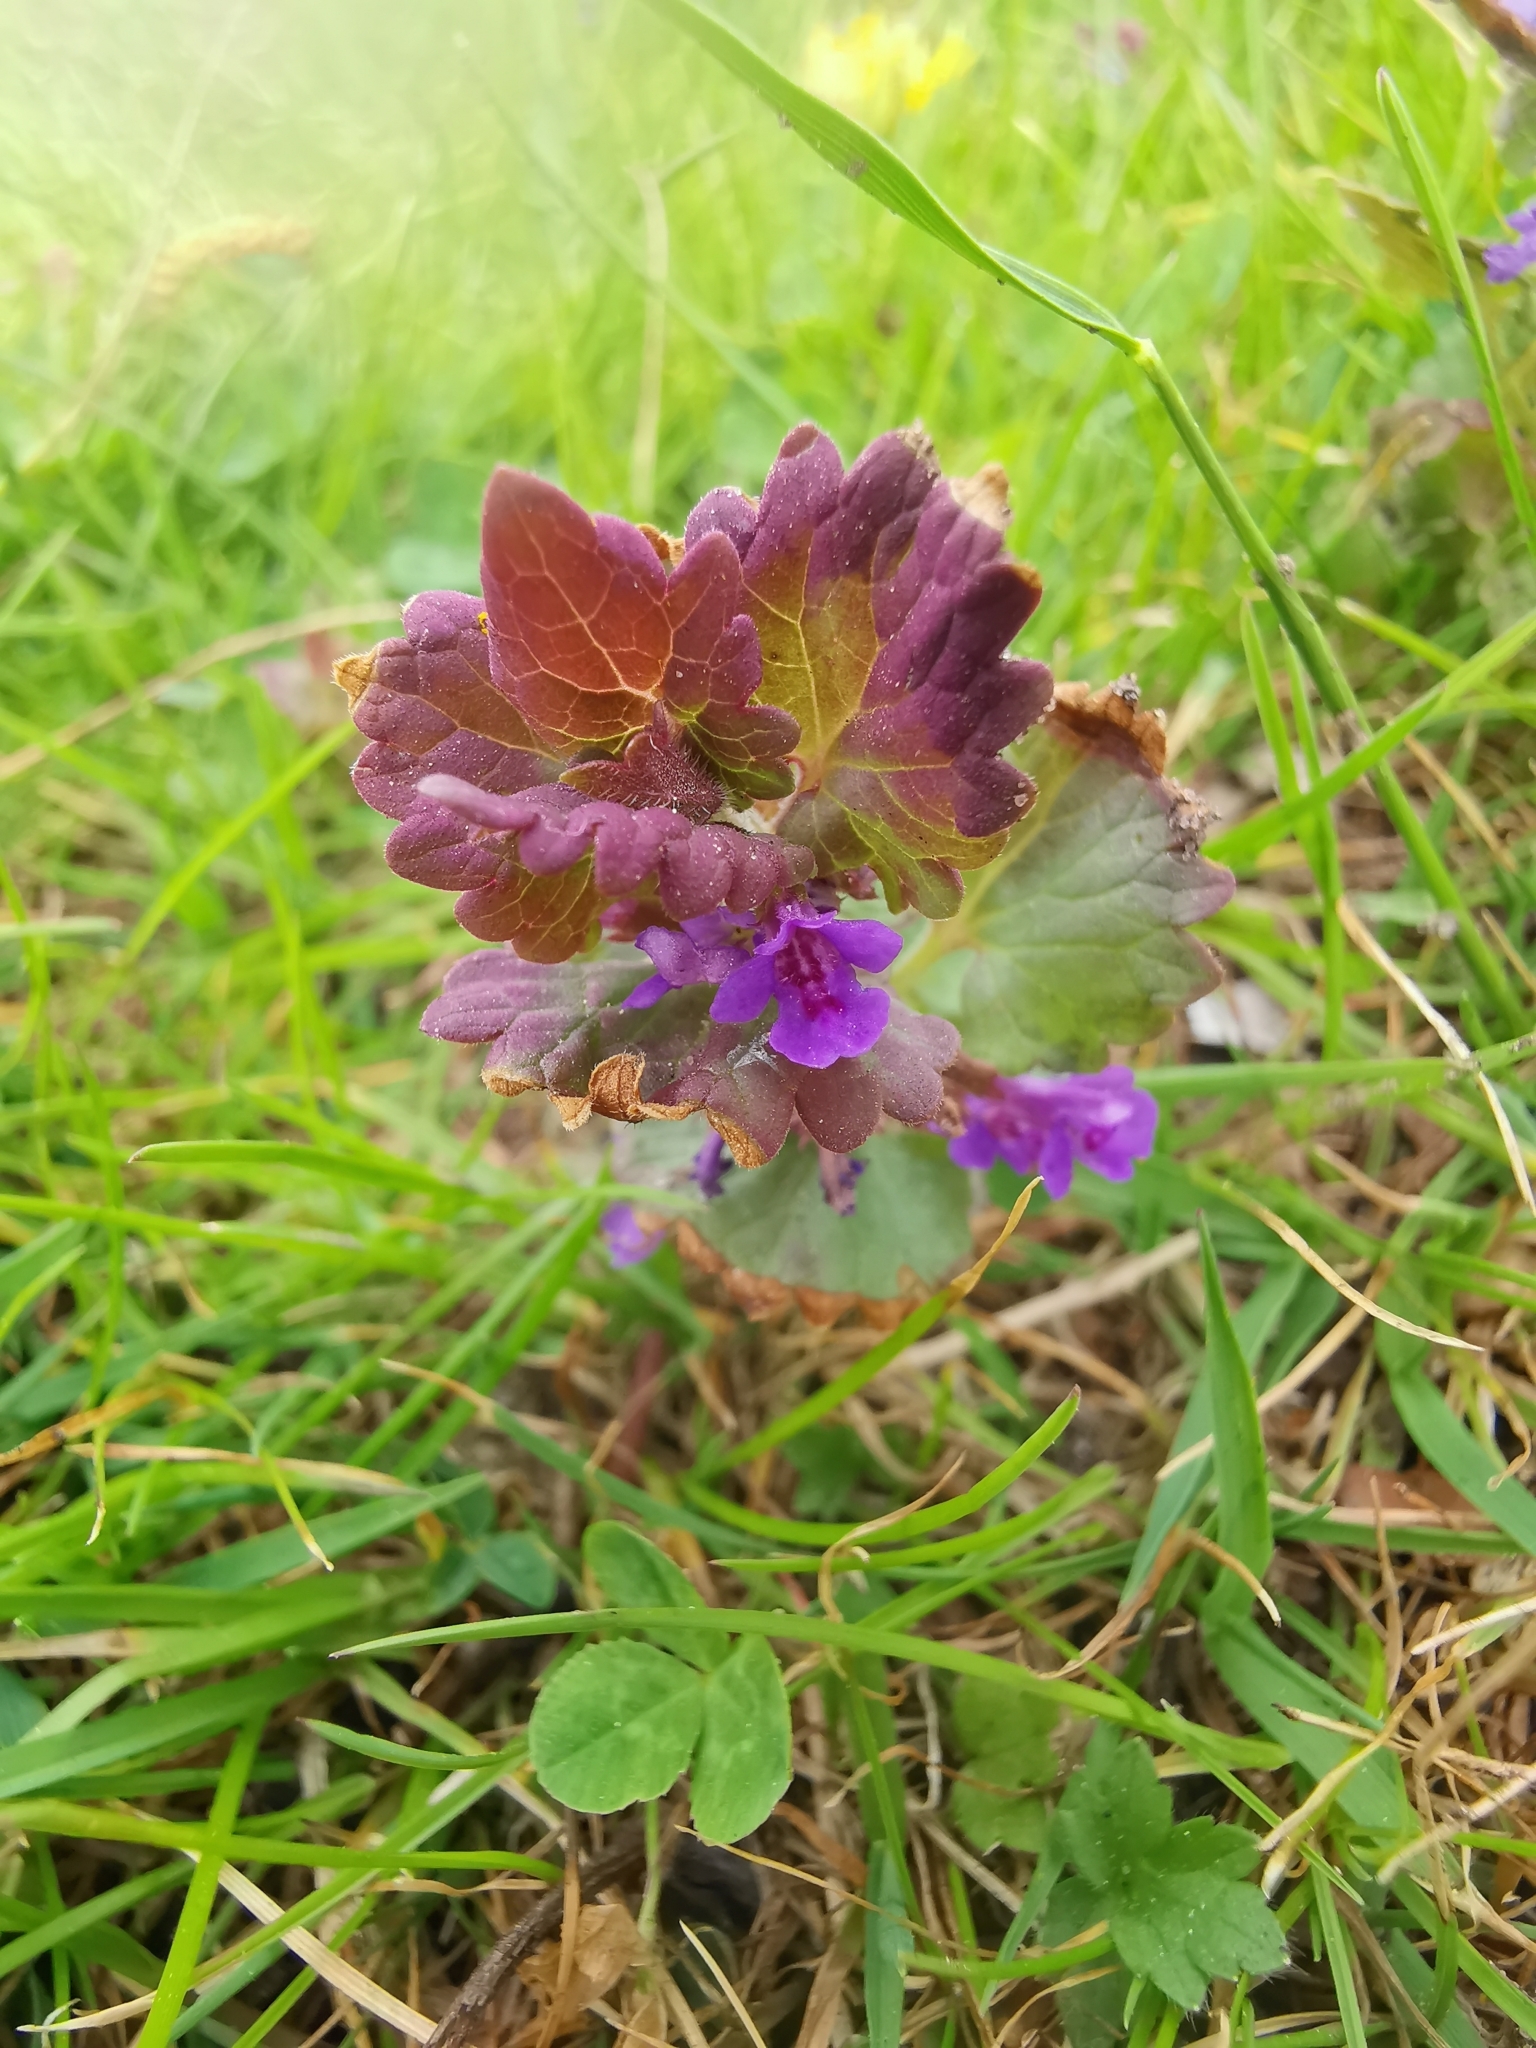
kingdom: Plantae
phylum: Tracheophyta
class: Magnoliopsida
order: Lamiales
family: Lamiaceae
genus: Glechoma
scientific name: Glechoma hederacea
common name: Ground ivy
